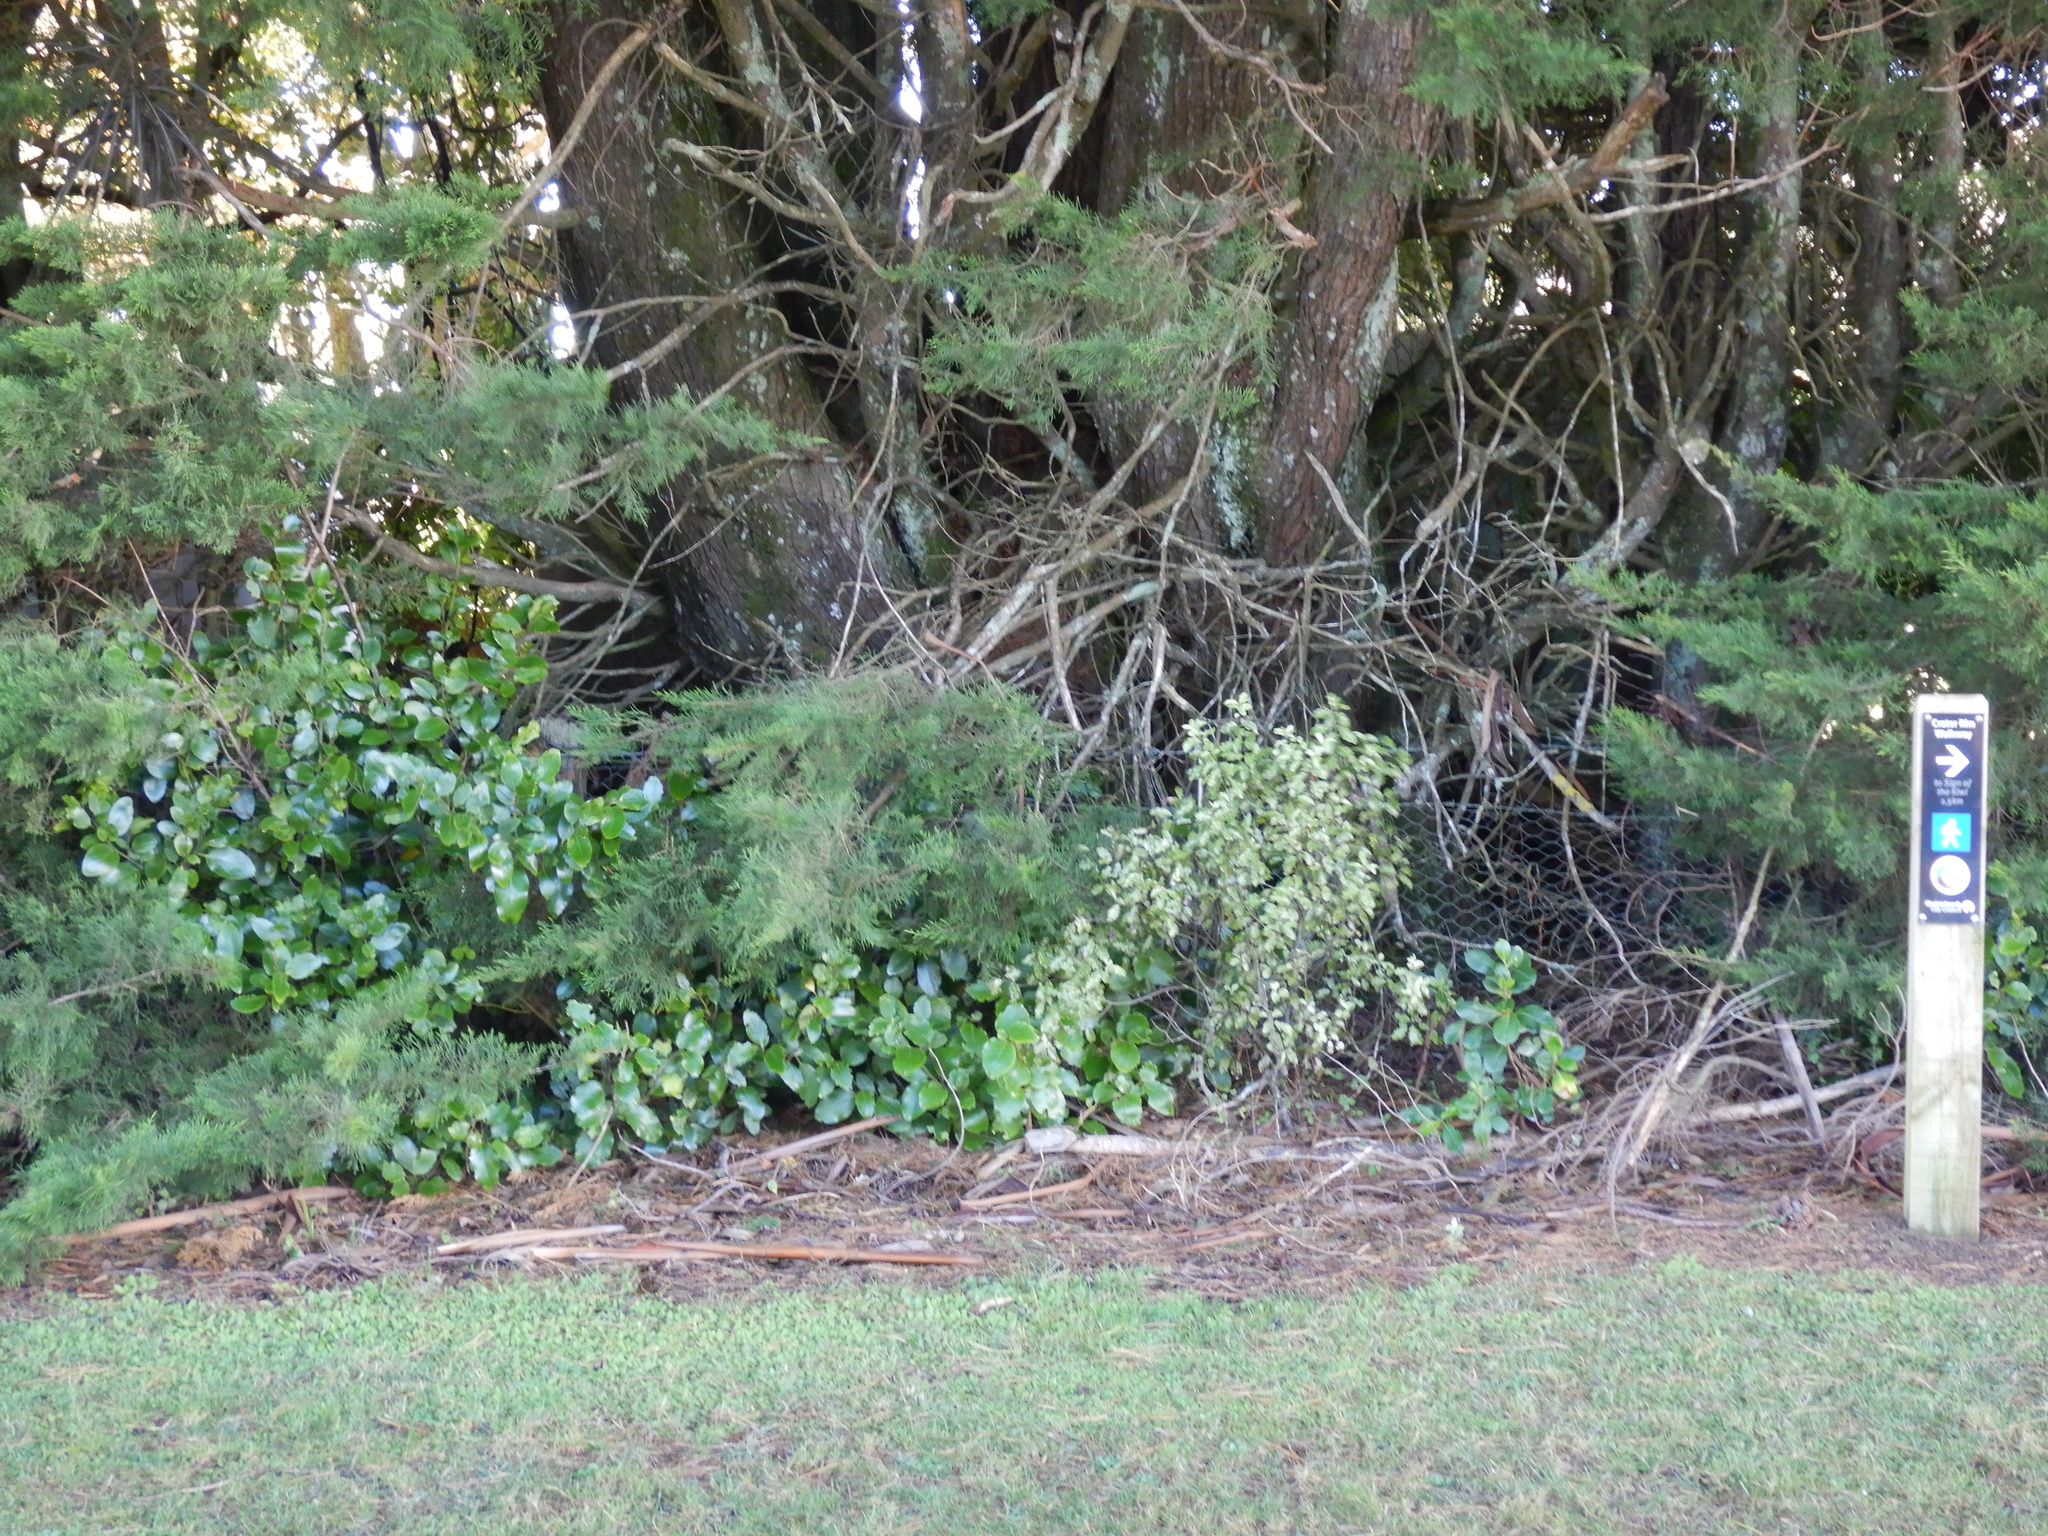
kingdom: Plantae
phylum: Tracheophyta
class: Magnoliopsida
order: Apiales
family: Pittosporaceae
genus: Pittosporum
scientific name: Pittosporum tenuifolium
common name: Kohuhu
